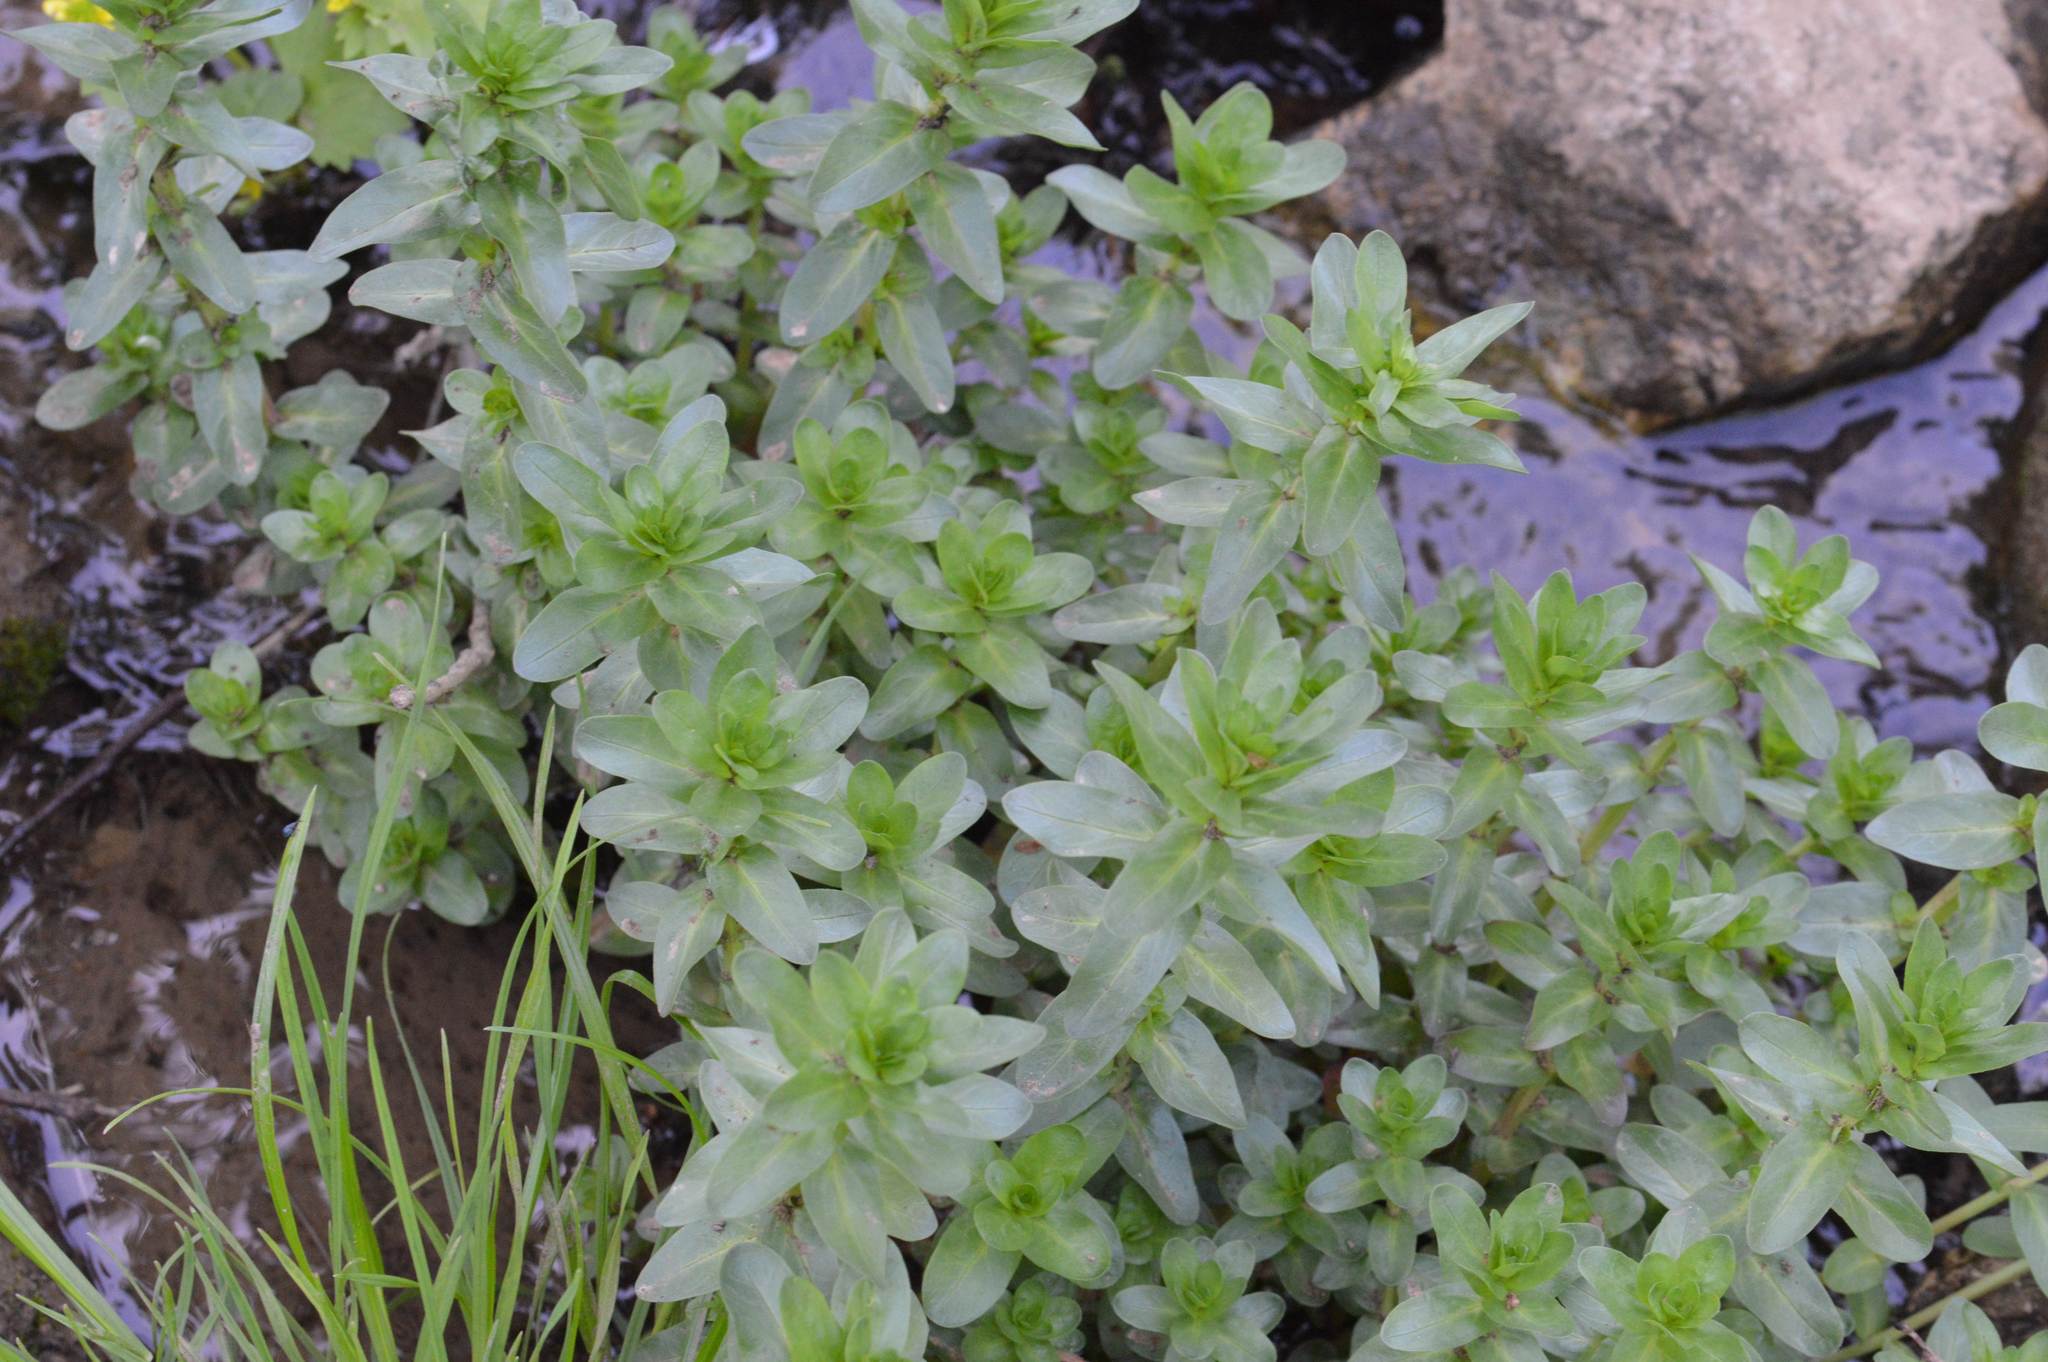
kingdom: Plantae
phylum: Tracheophyta
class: Magnoliopsida
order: Lamiales
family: Plantaginaceae
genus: Veronica
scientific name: Veronica anagallis-aquatica
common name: Water speedwell
